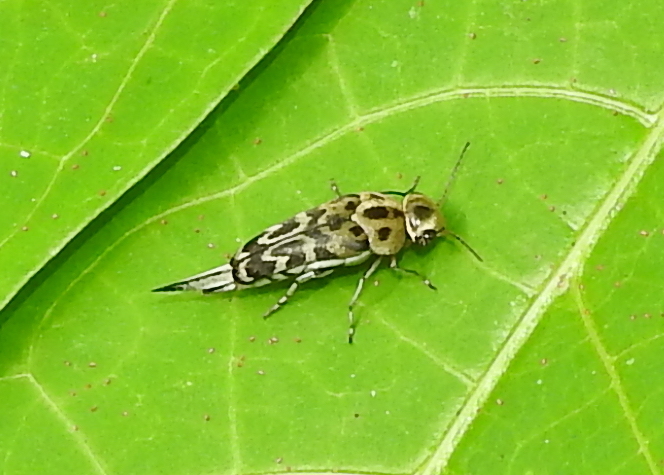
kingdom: Animalia
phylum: Arthropoda
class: Insecta
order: Coleoptera
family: Mordellidae
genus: Glipa
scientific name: Glipa
